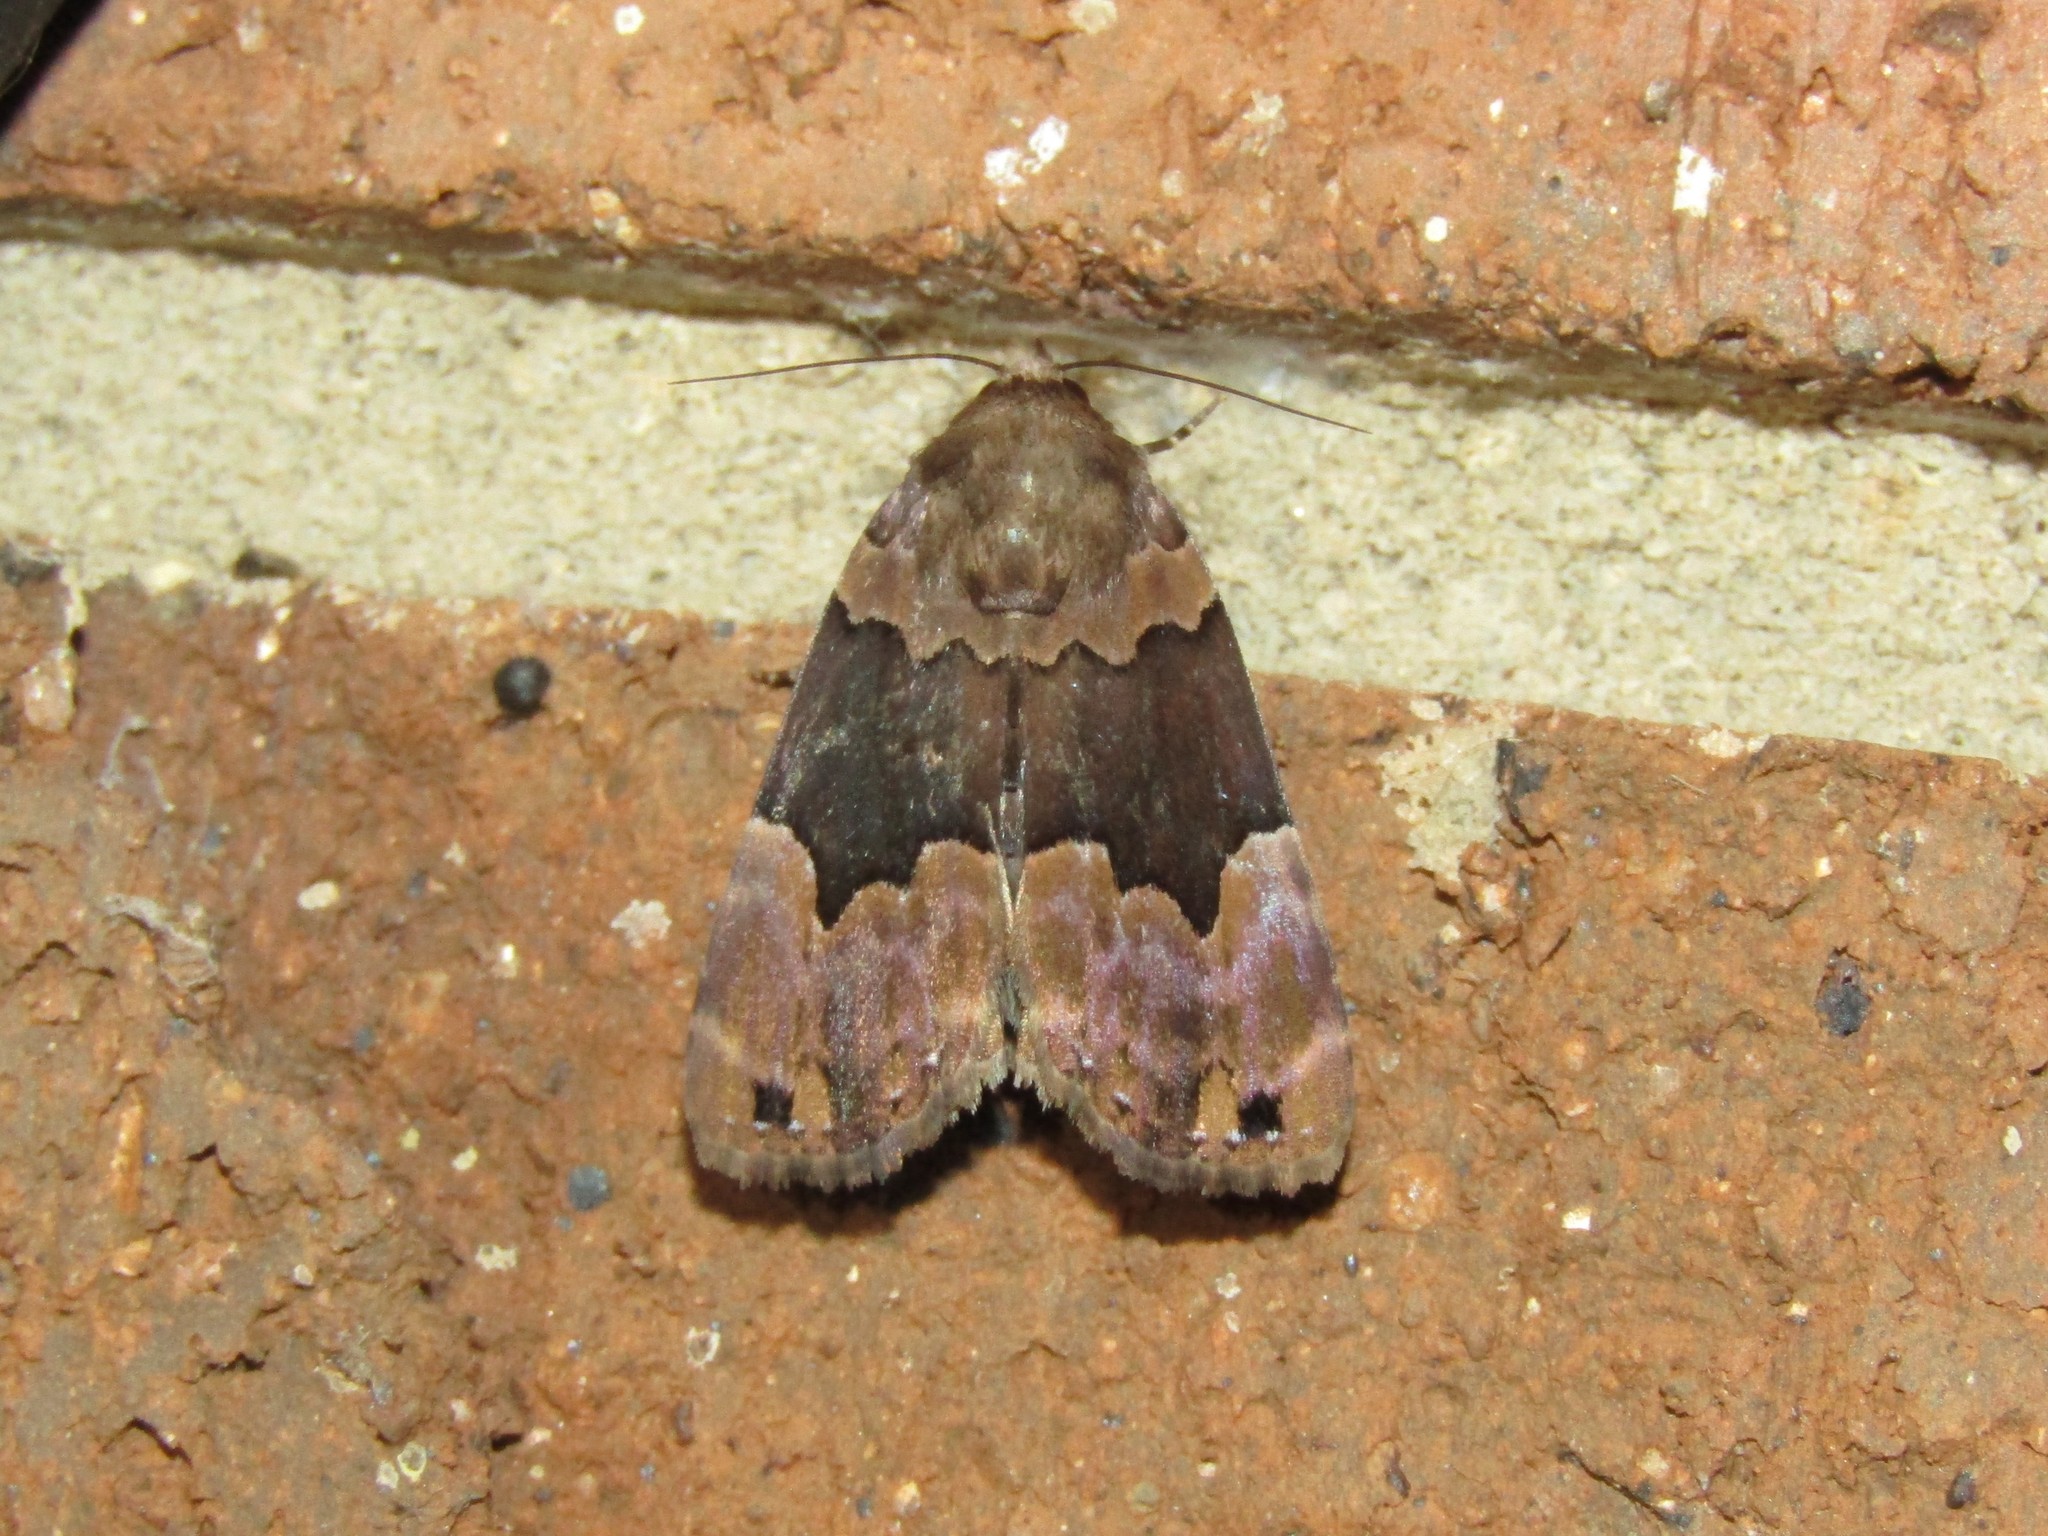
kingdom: Animalia
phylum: Arthropoda
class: Insecta
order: Lepidoptera
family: Erebidae
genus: Dinumma
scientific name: Dinumma deponens
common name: Purplish moth
